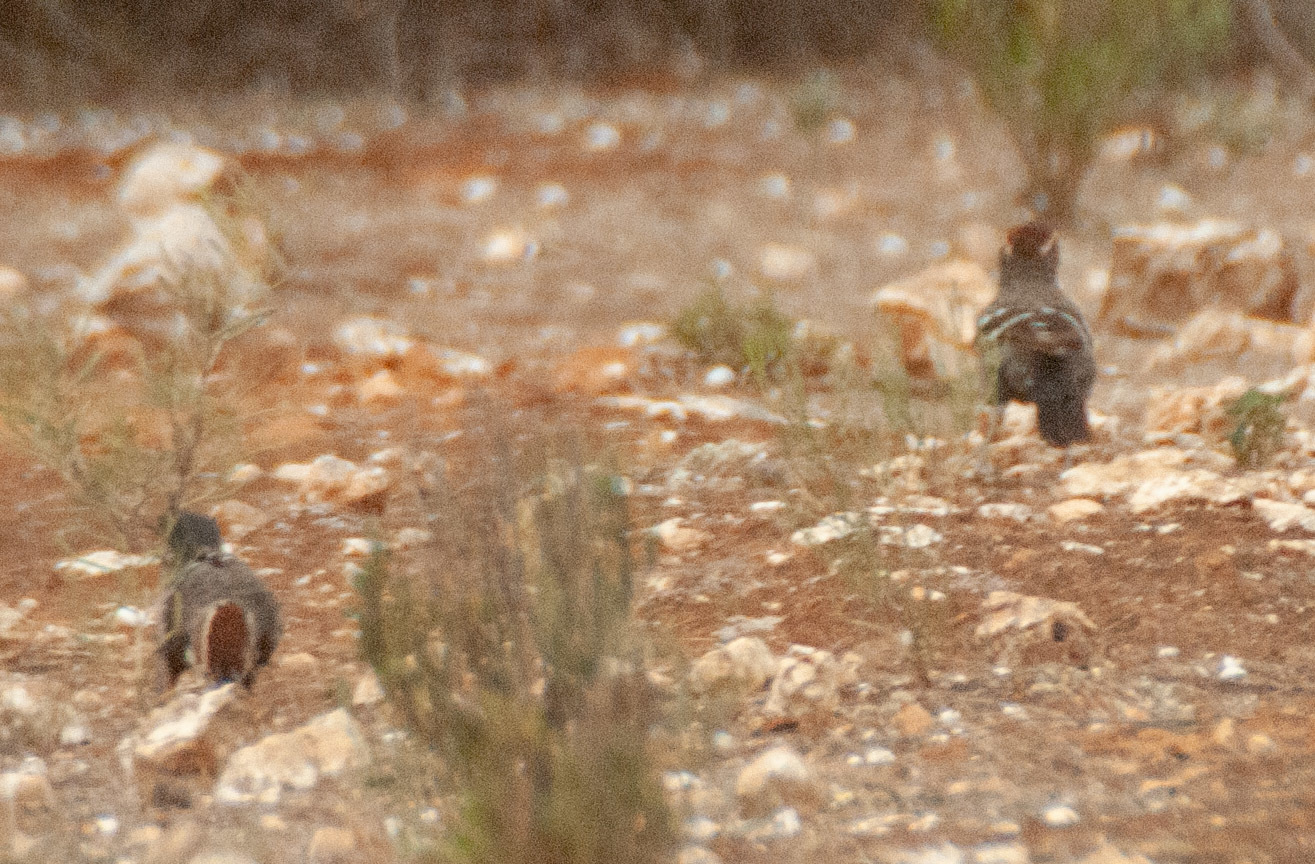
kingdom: Animalia
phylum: Chordata
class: Aves
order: Passeriformes
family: Pomatostomidae
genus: Pomatostomus
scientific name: Pomatostomus ruficeps
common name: Chestnut-crowned babbler
